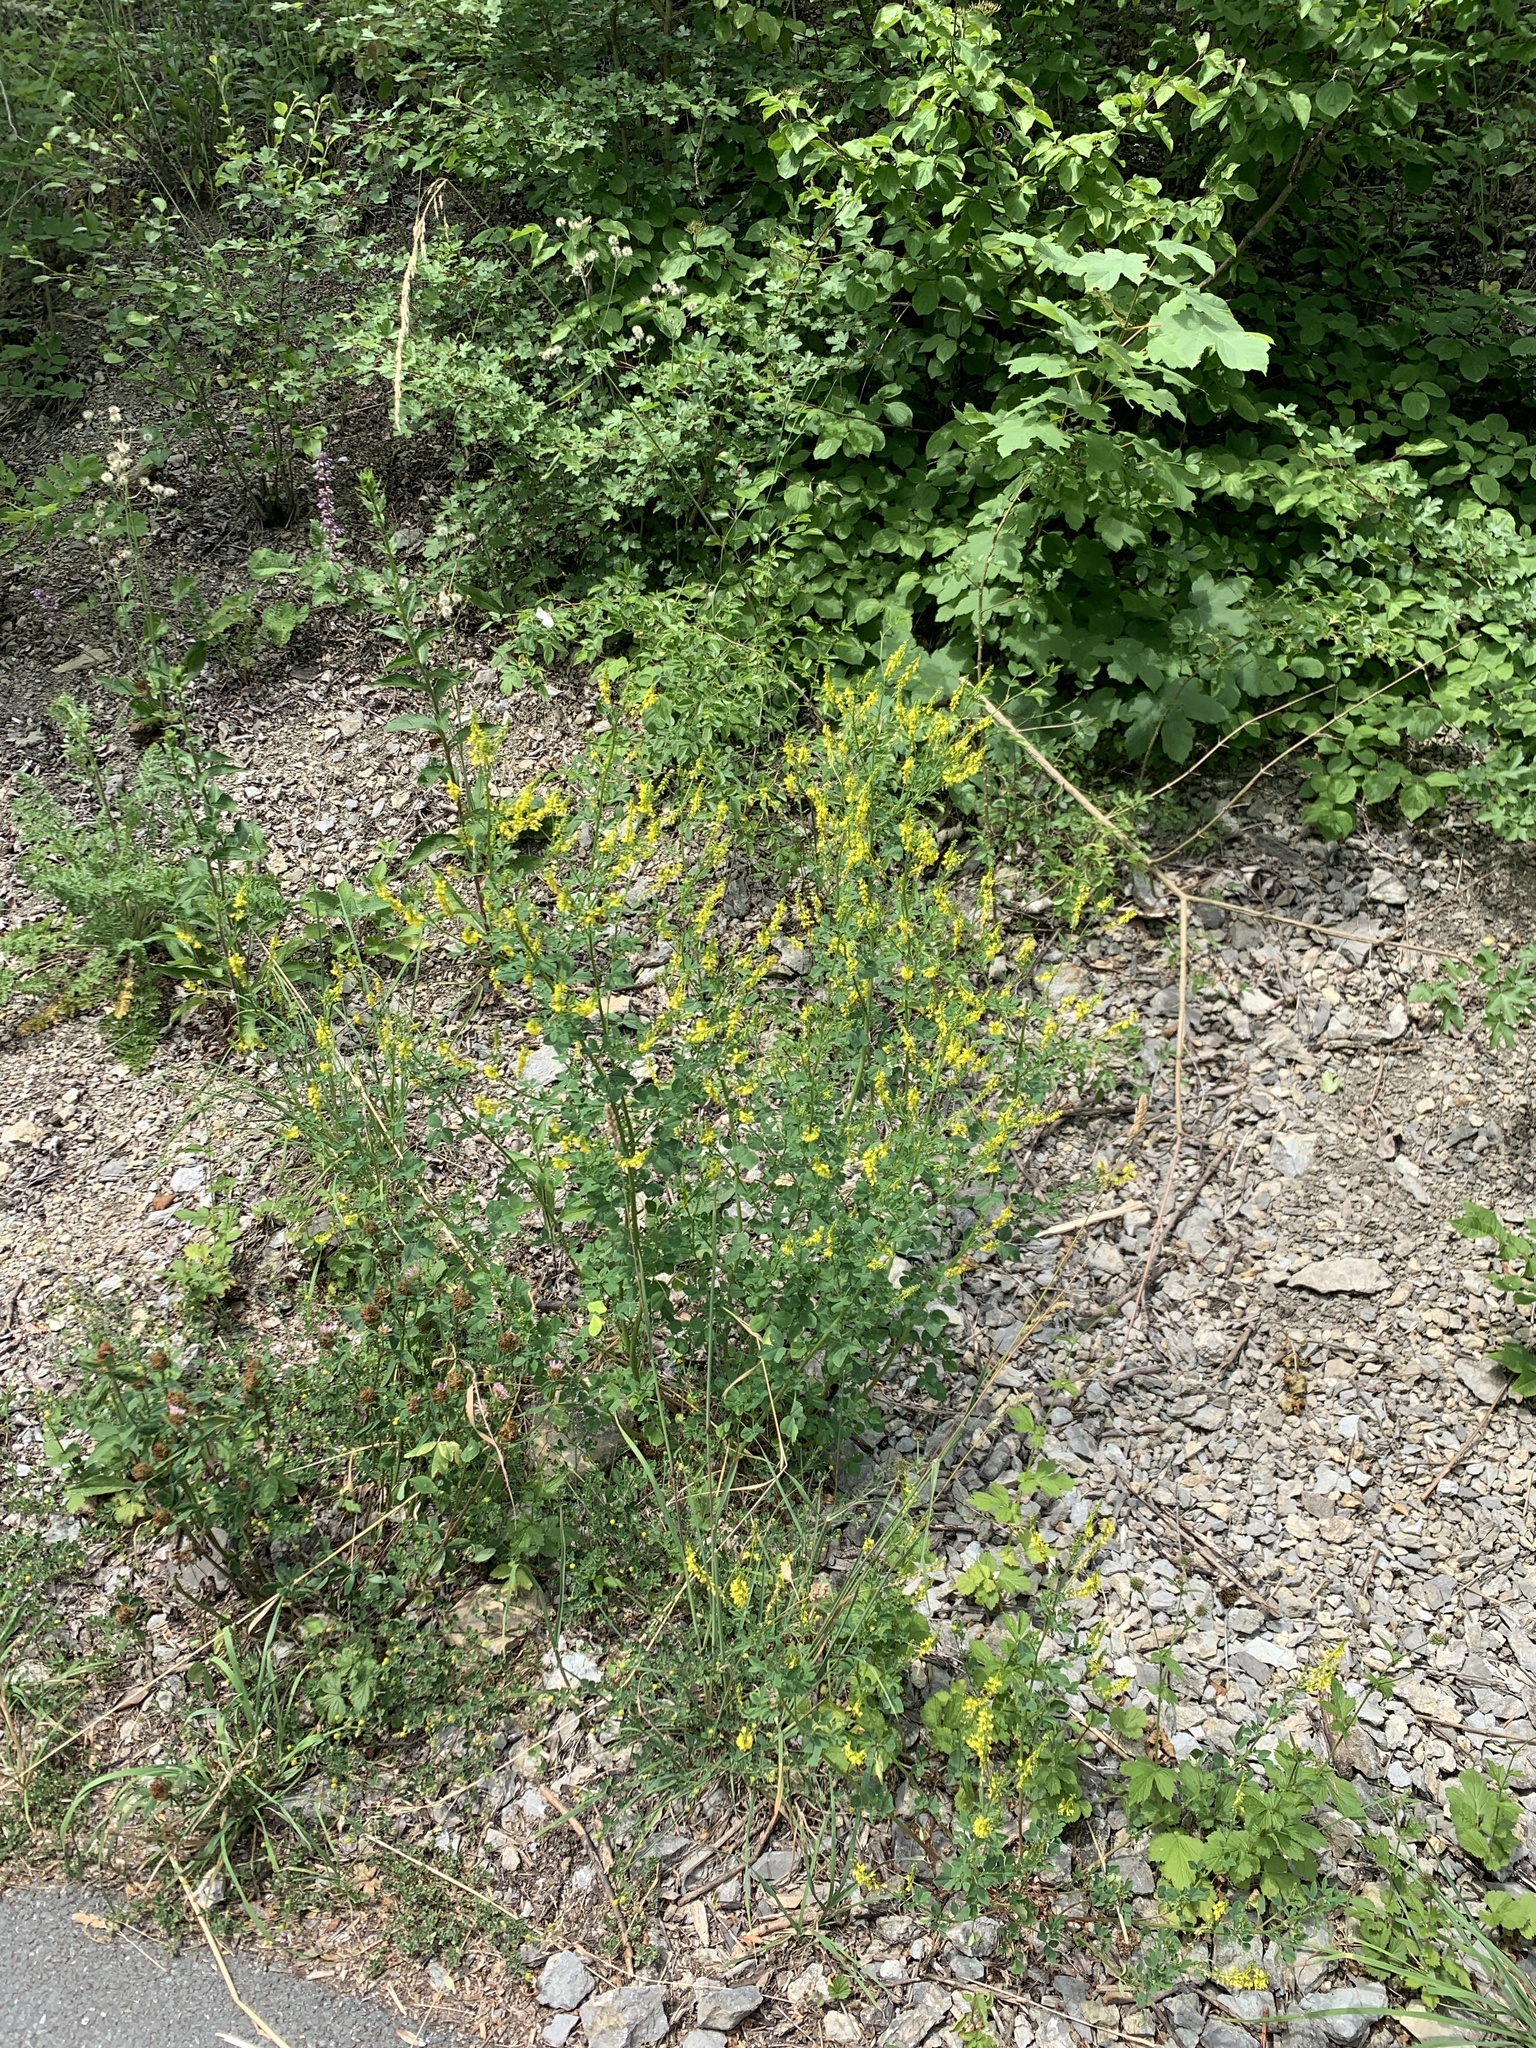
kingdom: Plantae
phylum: Tracheophyta
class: Magnoliopsida
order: Fabales
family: Fabaceae
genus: Melilotus
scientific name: Melilotus officinalis
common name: Sweetclover
